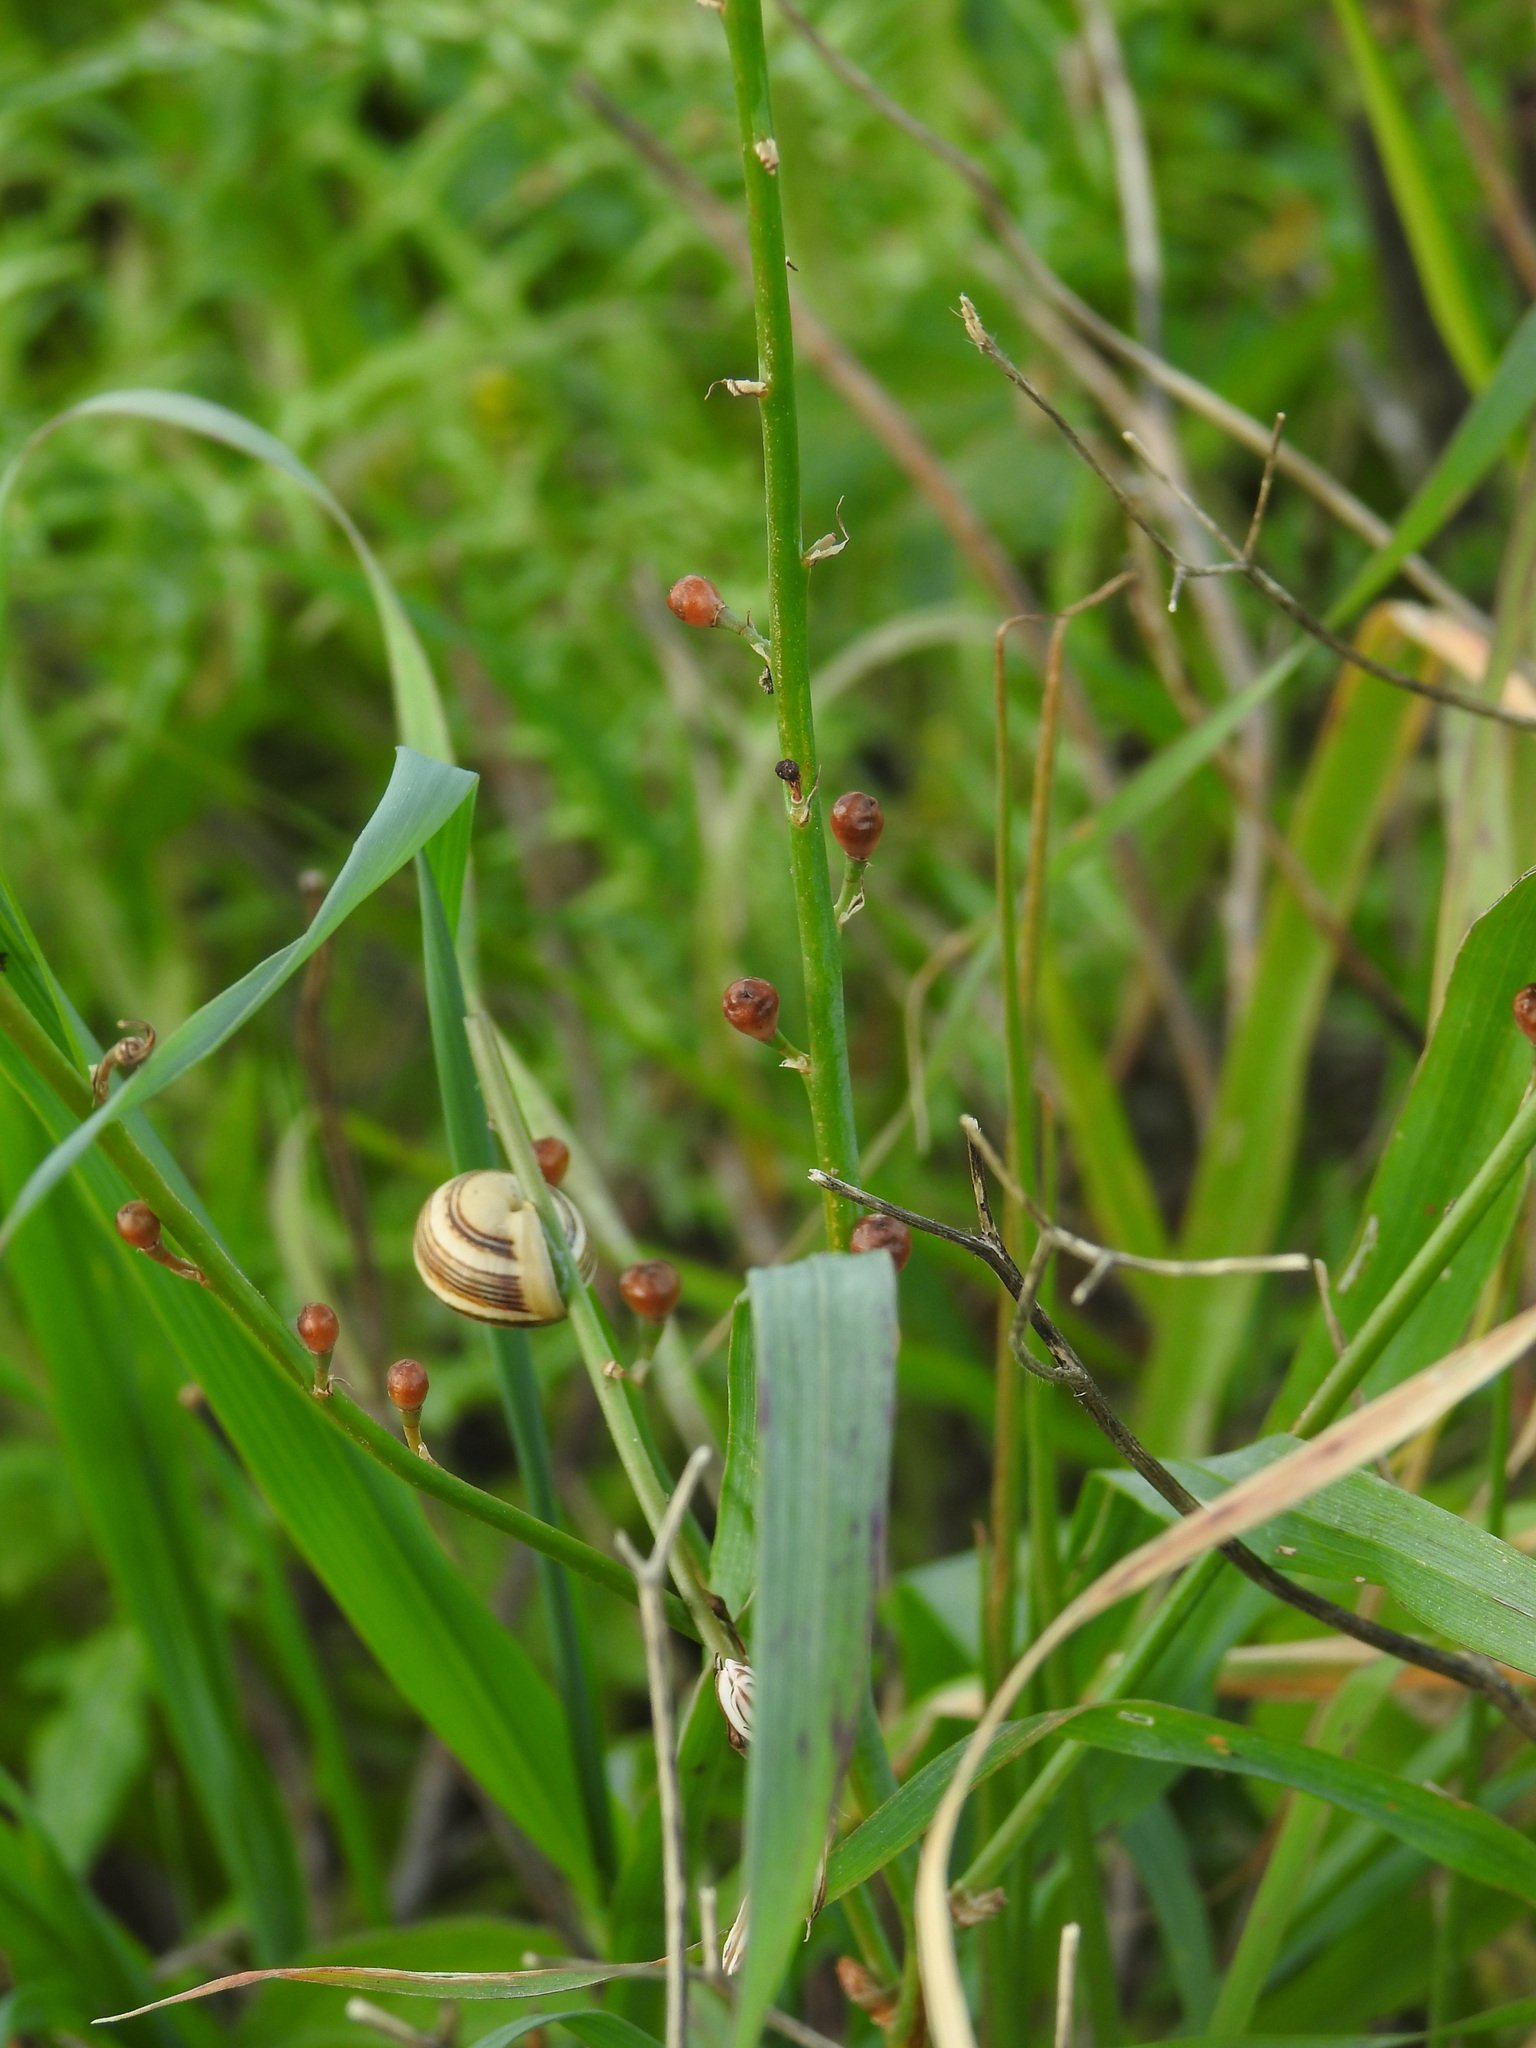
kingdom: Plantae
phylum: Tracheophyta
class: Liliopsida
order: Asparagales
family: Asphodelaceae
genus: Asphodelus
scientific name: Asphodelus fistulosus
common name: Onionweed
